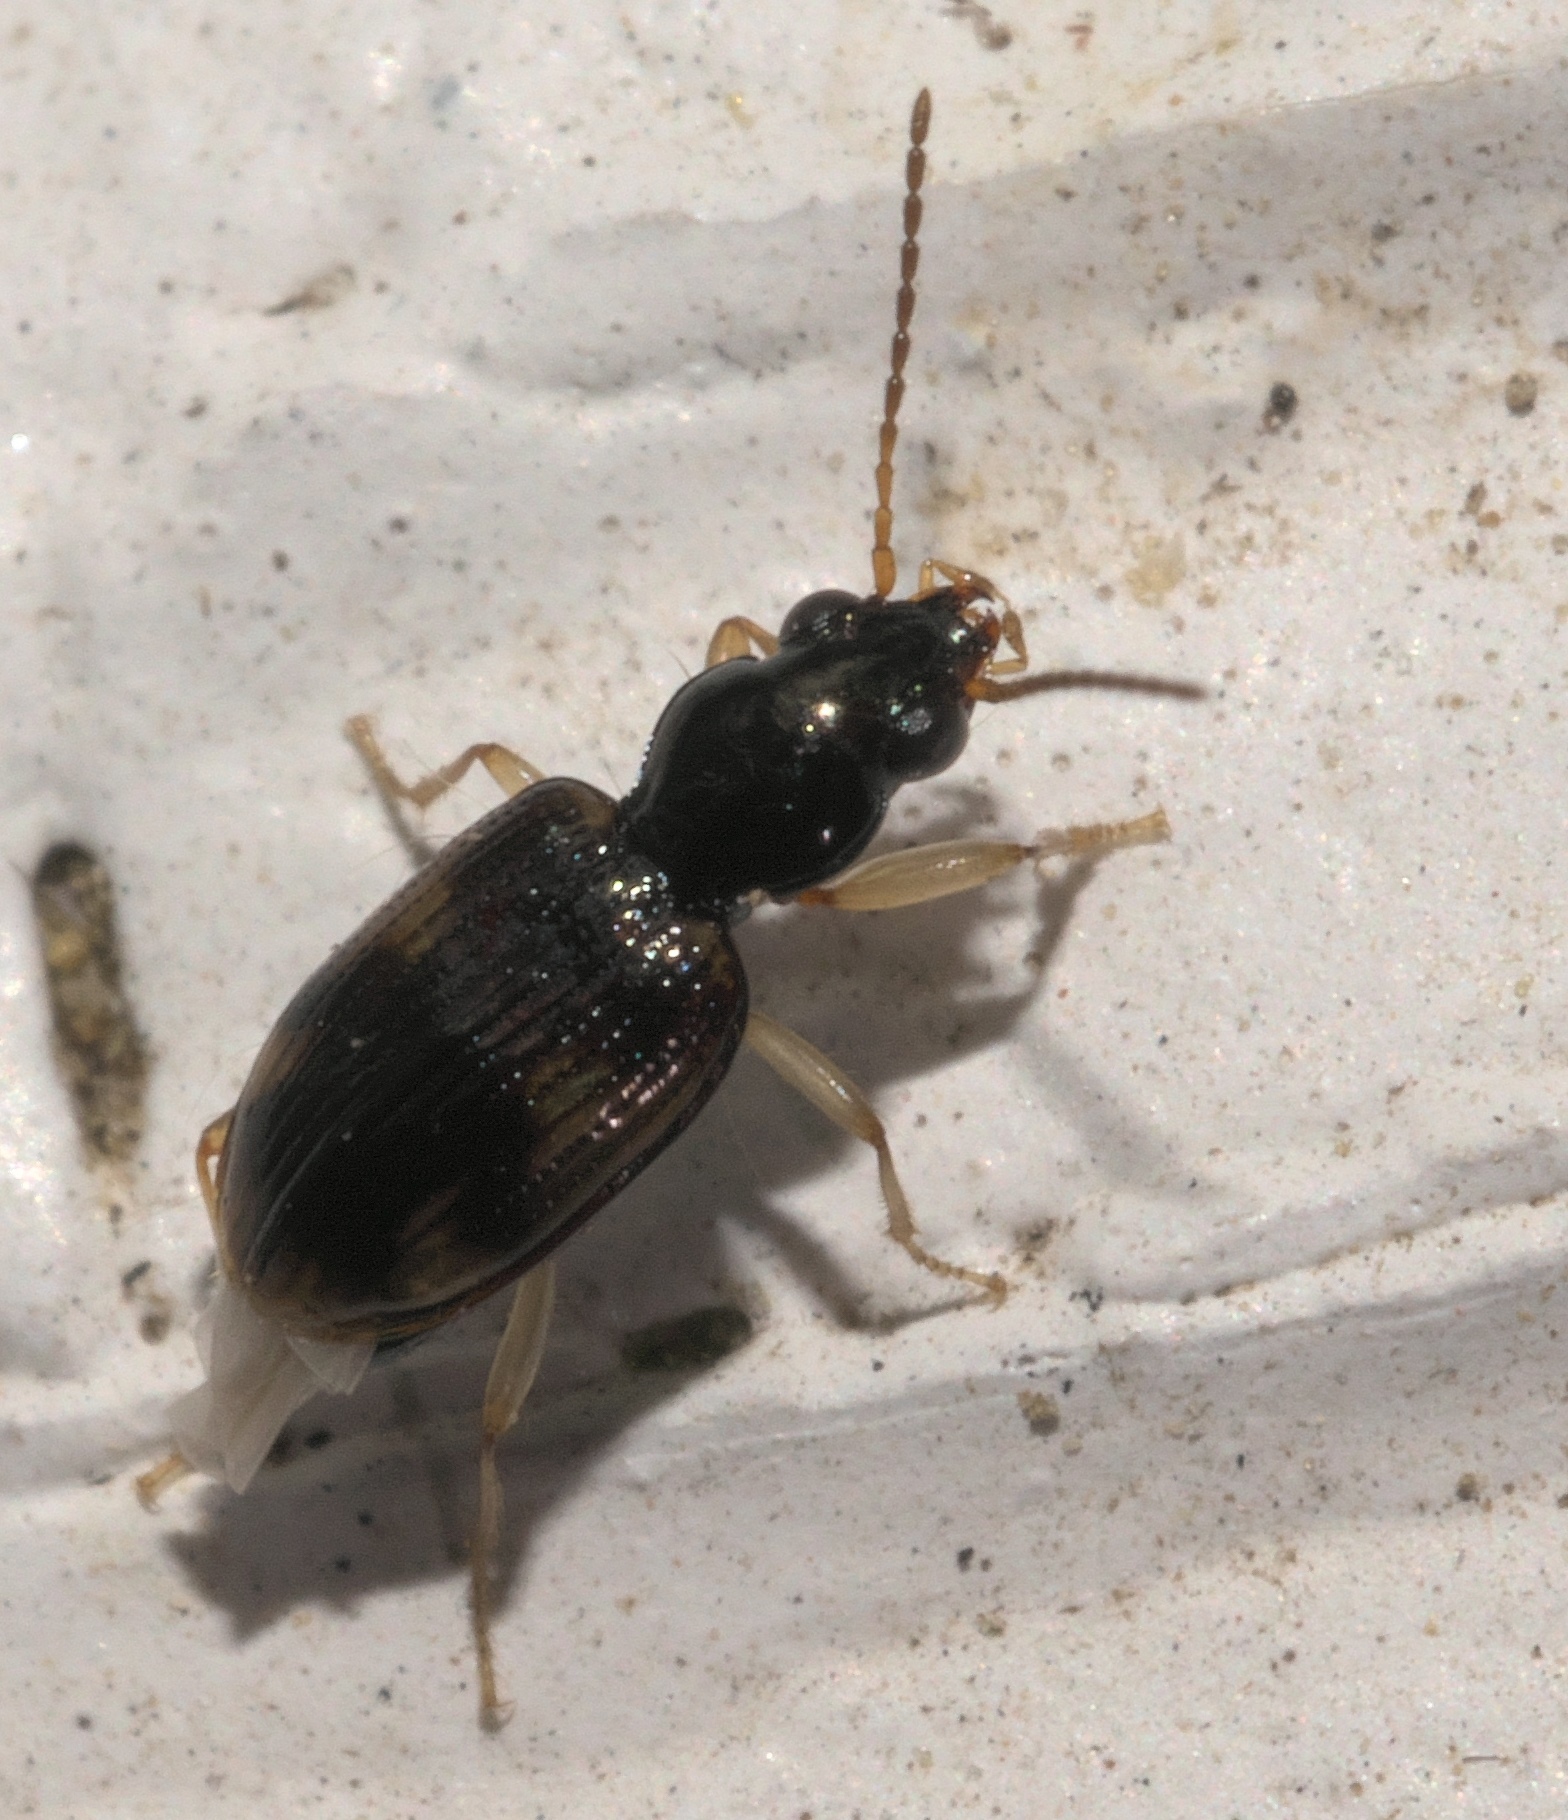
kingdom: Animalia
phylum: Arthropoda
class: Insecta
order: Coleoptera
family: Carabidae
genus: Bembidion
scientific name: Bembidion affine
